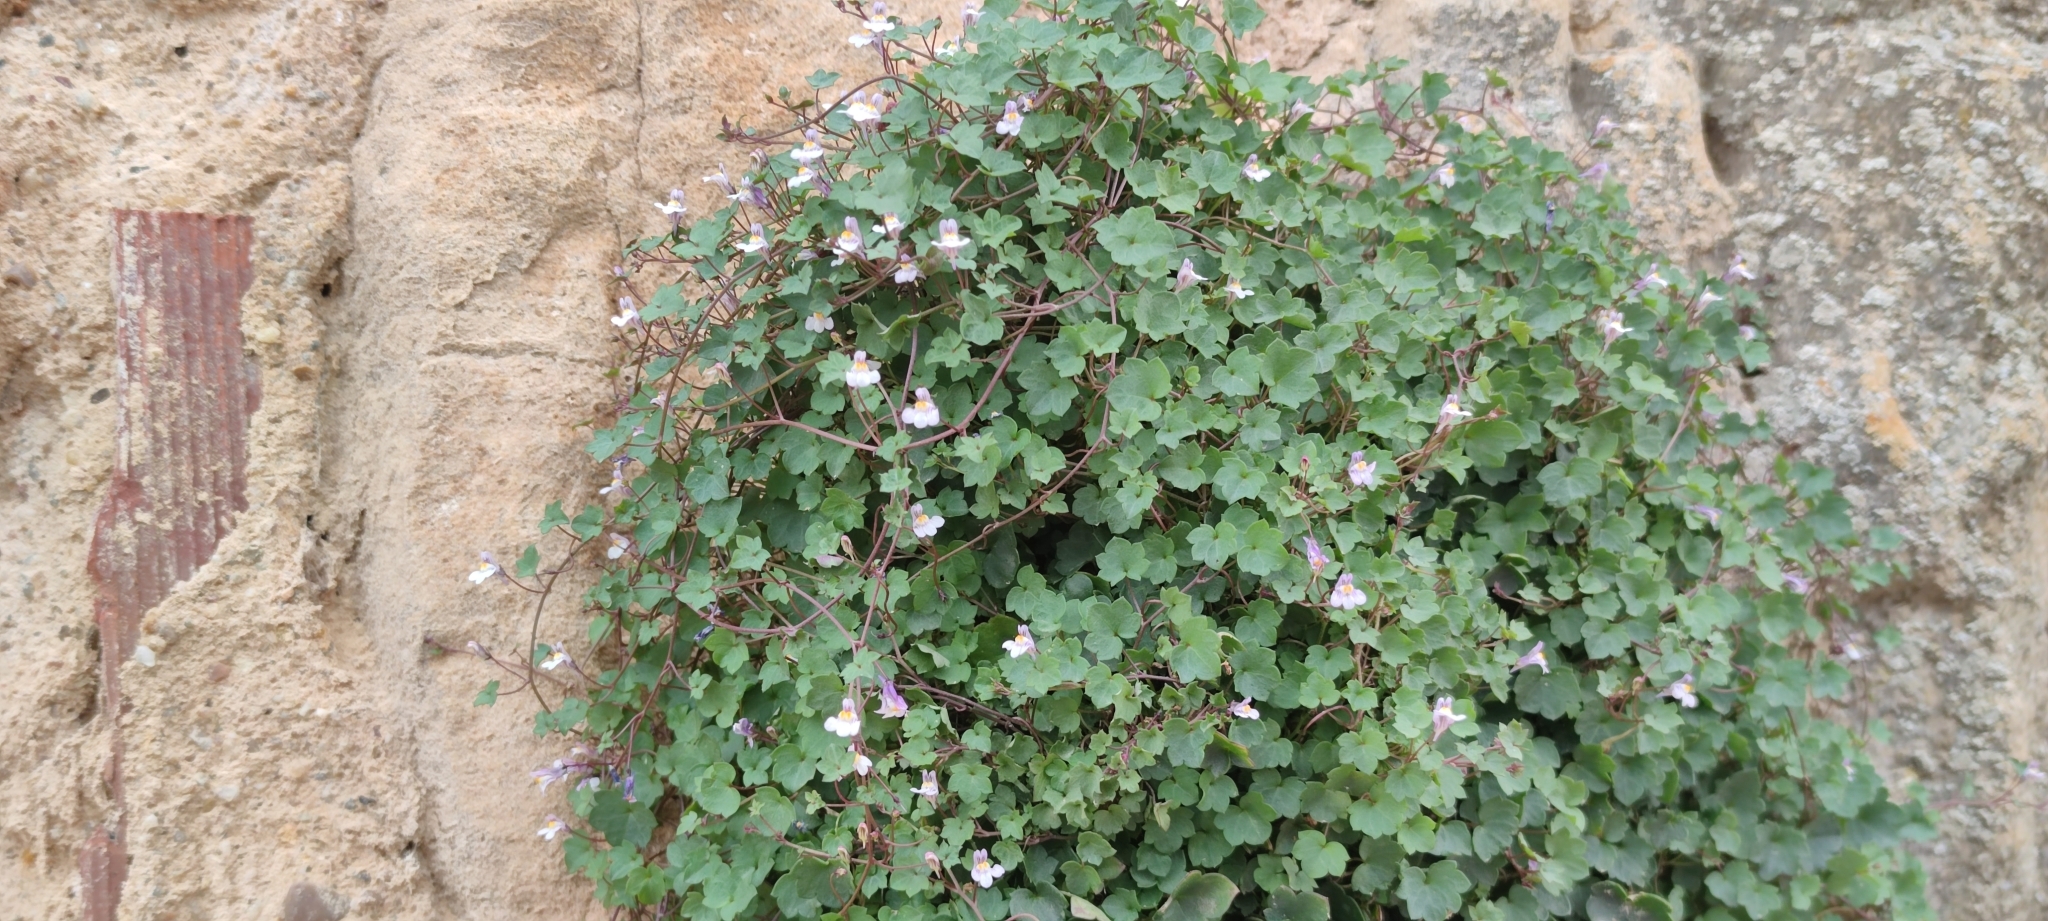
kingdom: Plantae
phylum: Tracheophyta
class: Magnoliopsida
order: Lamiales
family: Plantaginaceae
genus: Cymbalaria
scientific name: Cymbalaria muralis
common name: Ivy-leaved toadflax
